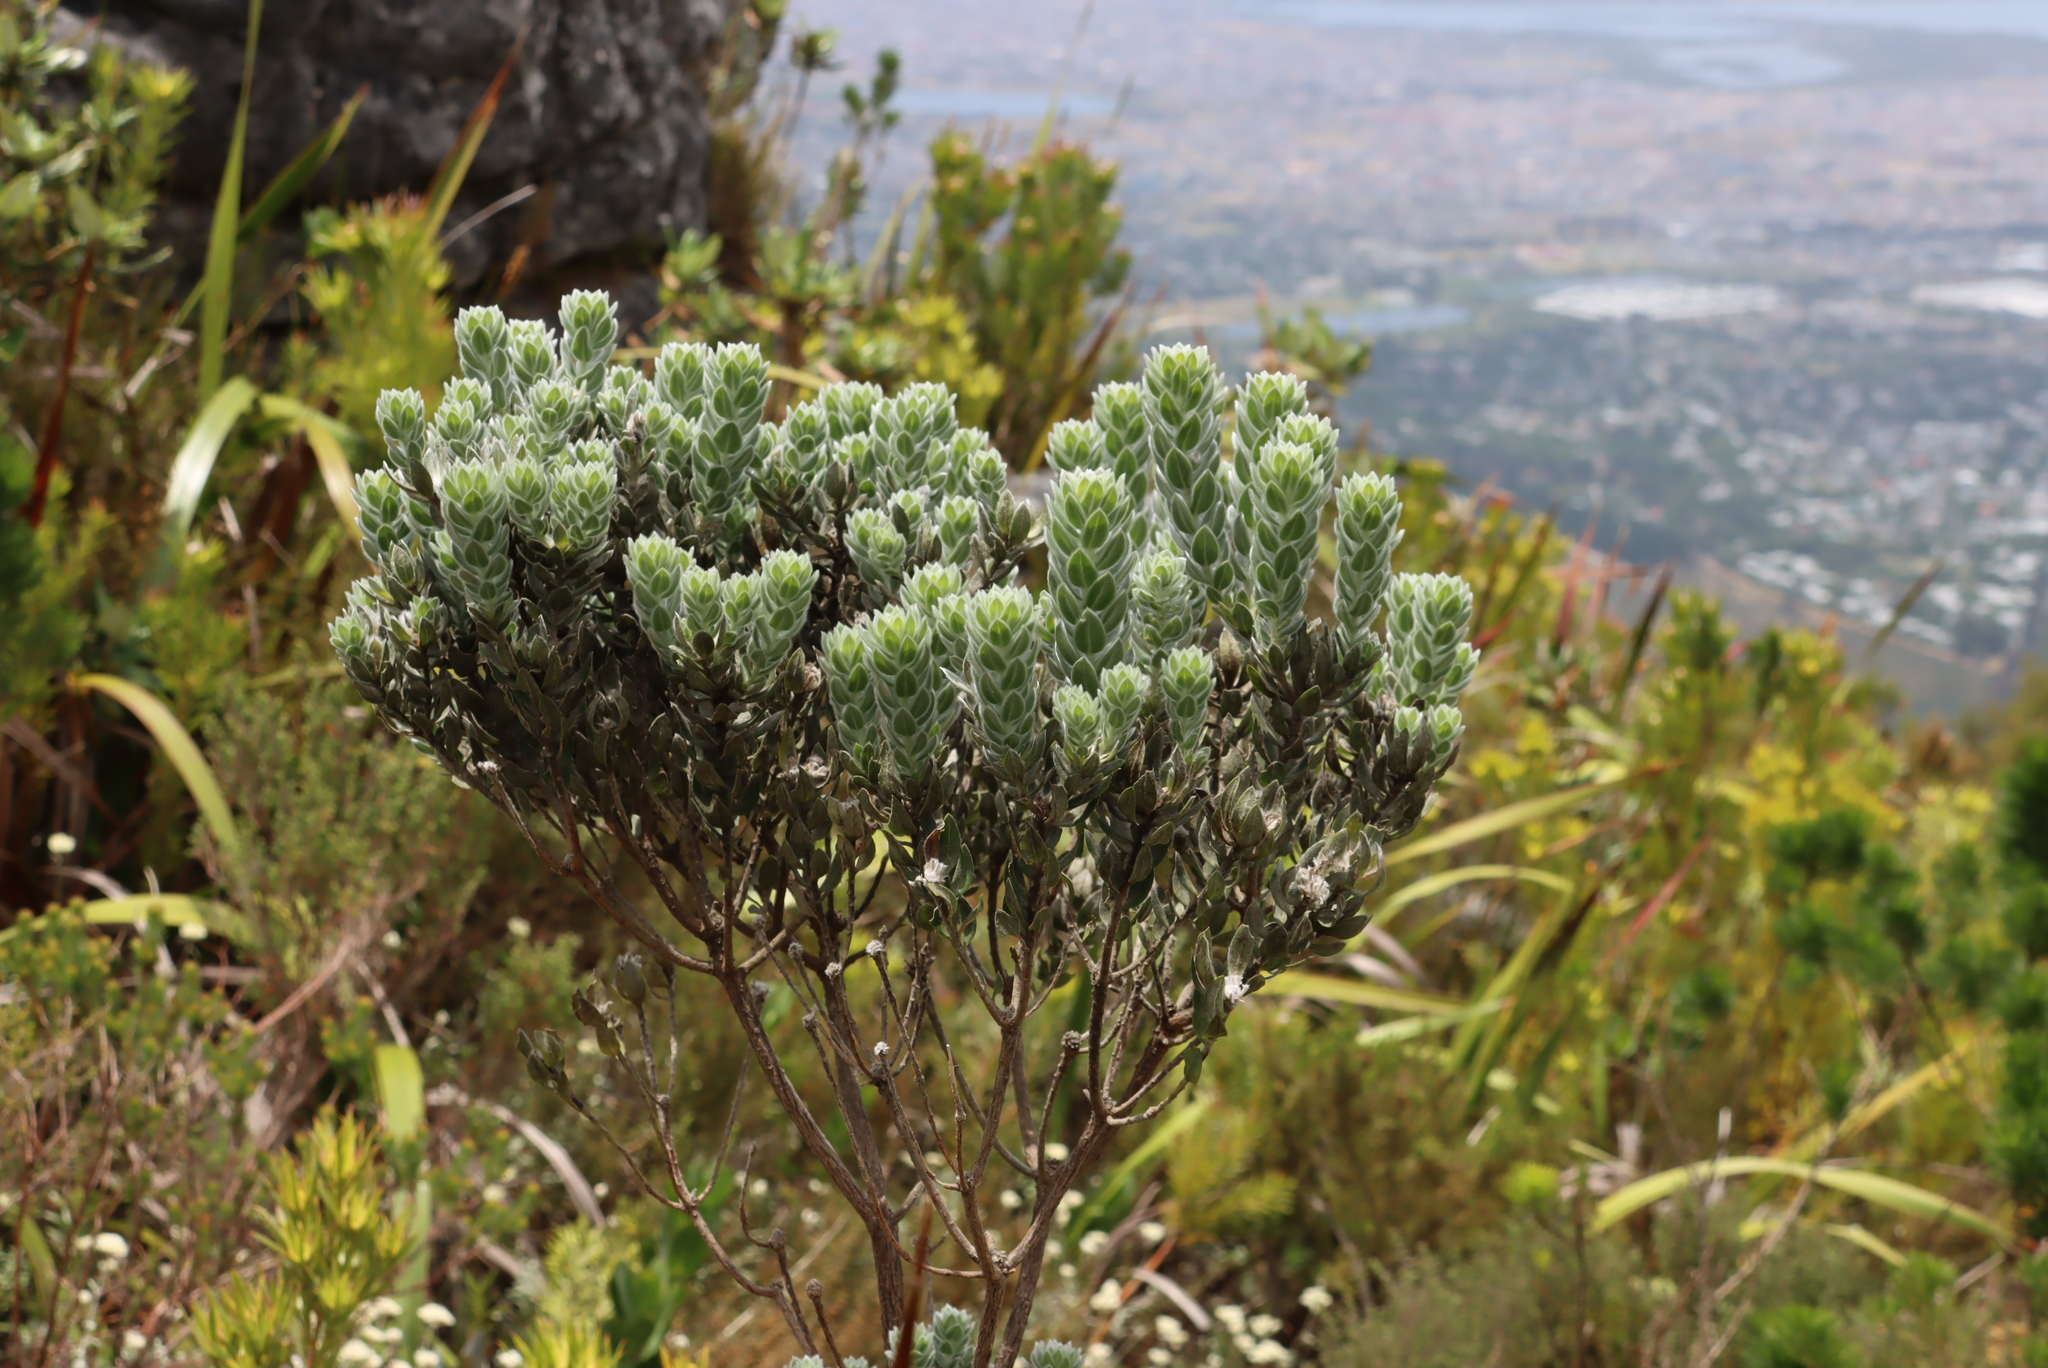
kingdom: Plantae
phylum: Tracheophyta
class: Magnoliopsida
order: Fabales
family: Fabaceae
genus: Xiphotheca
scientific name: Xiphotheca fruticosa
